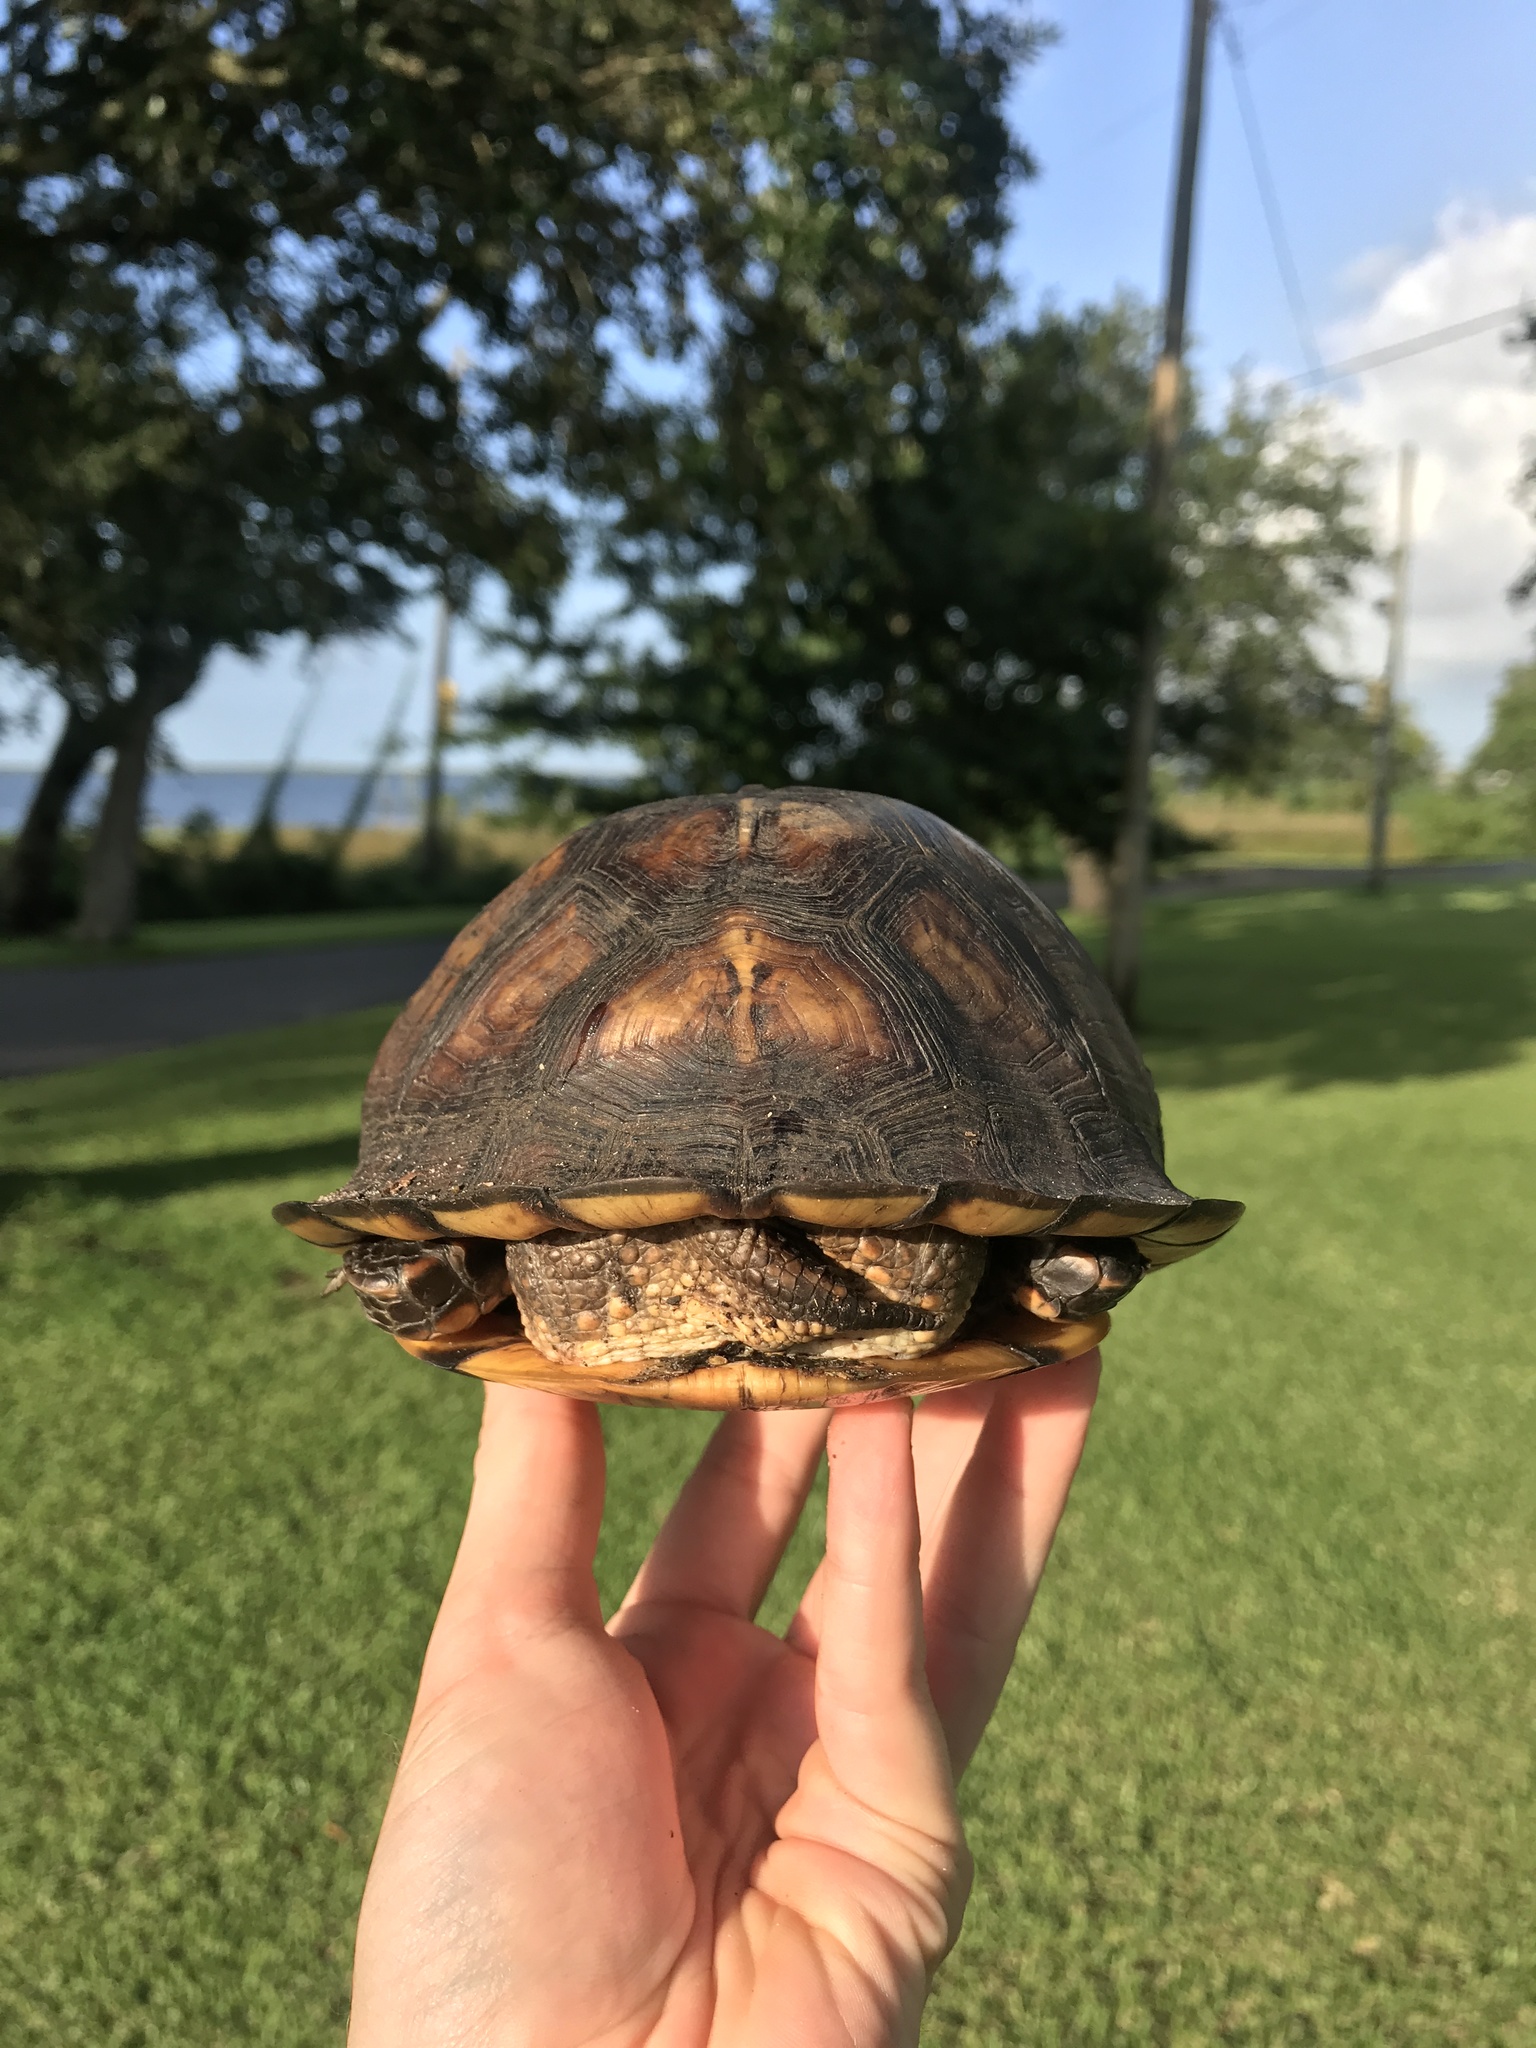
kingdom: Animalia
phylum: Chordata
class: Testudines
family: Emydidae
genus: Terrapene
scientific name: Terrapene carolina
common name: Common box turtle
